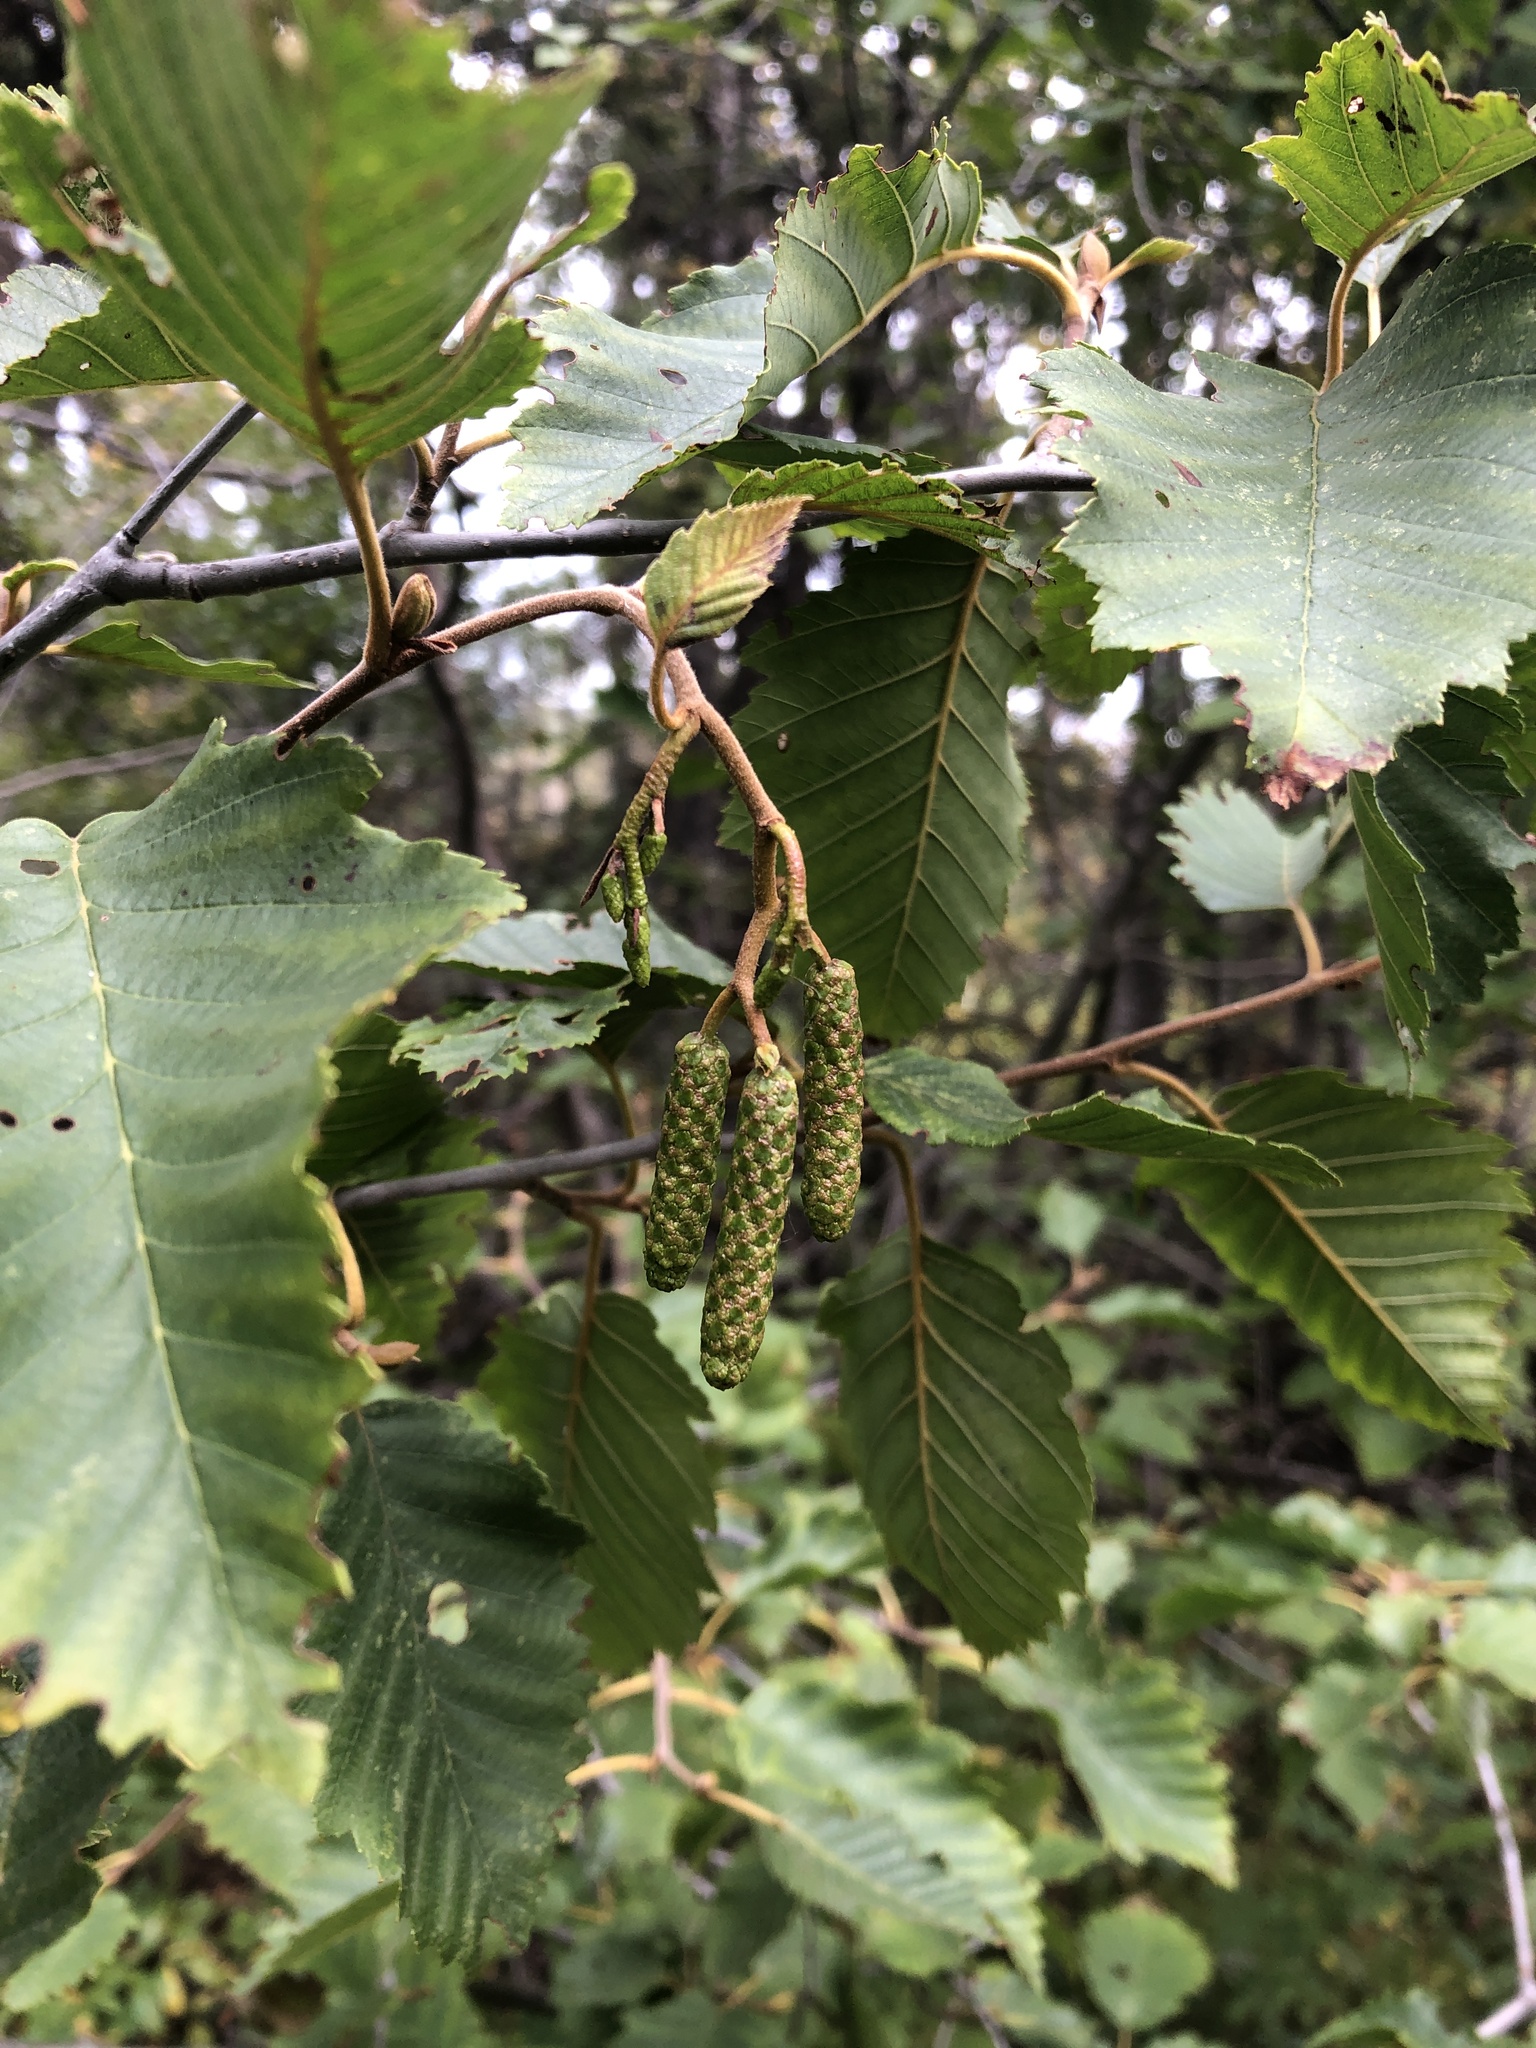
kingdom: Plantae
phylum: Tracheophyta
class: Magnoliopsida
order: Fagales
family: Betulaceae
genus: Alnus
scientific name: Alnus incana
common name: Grey alder
